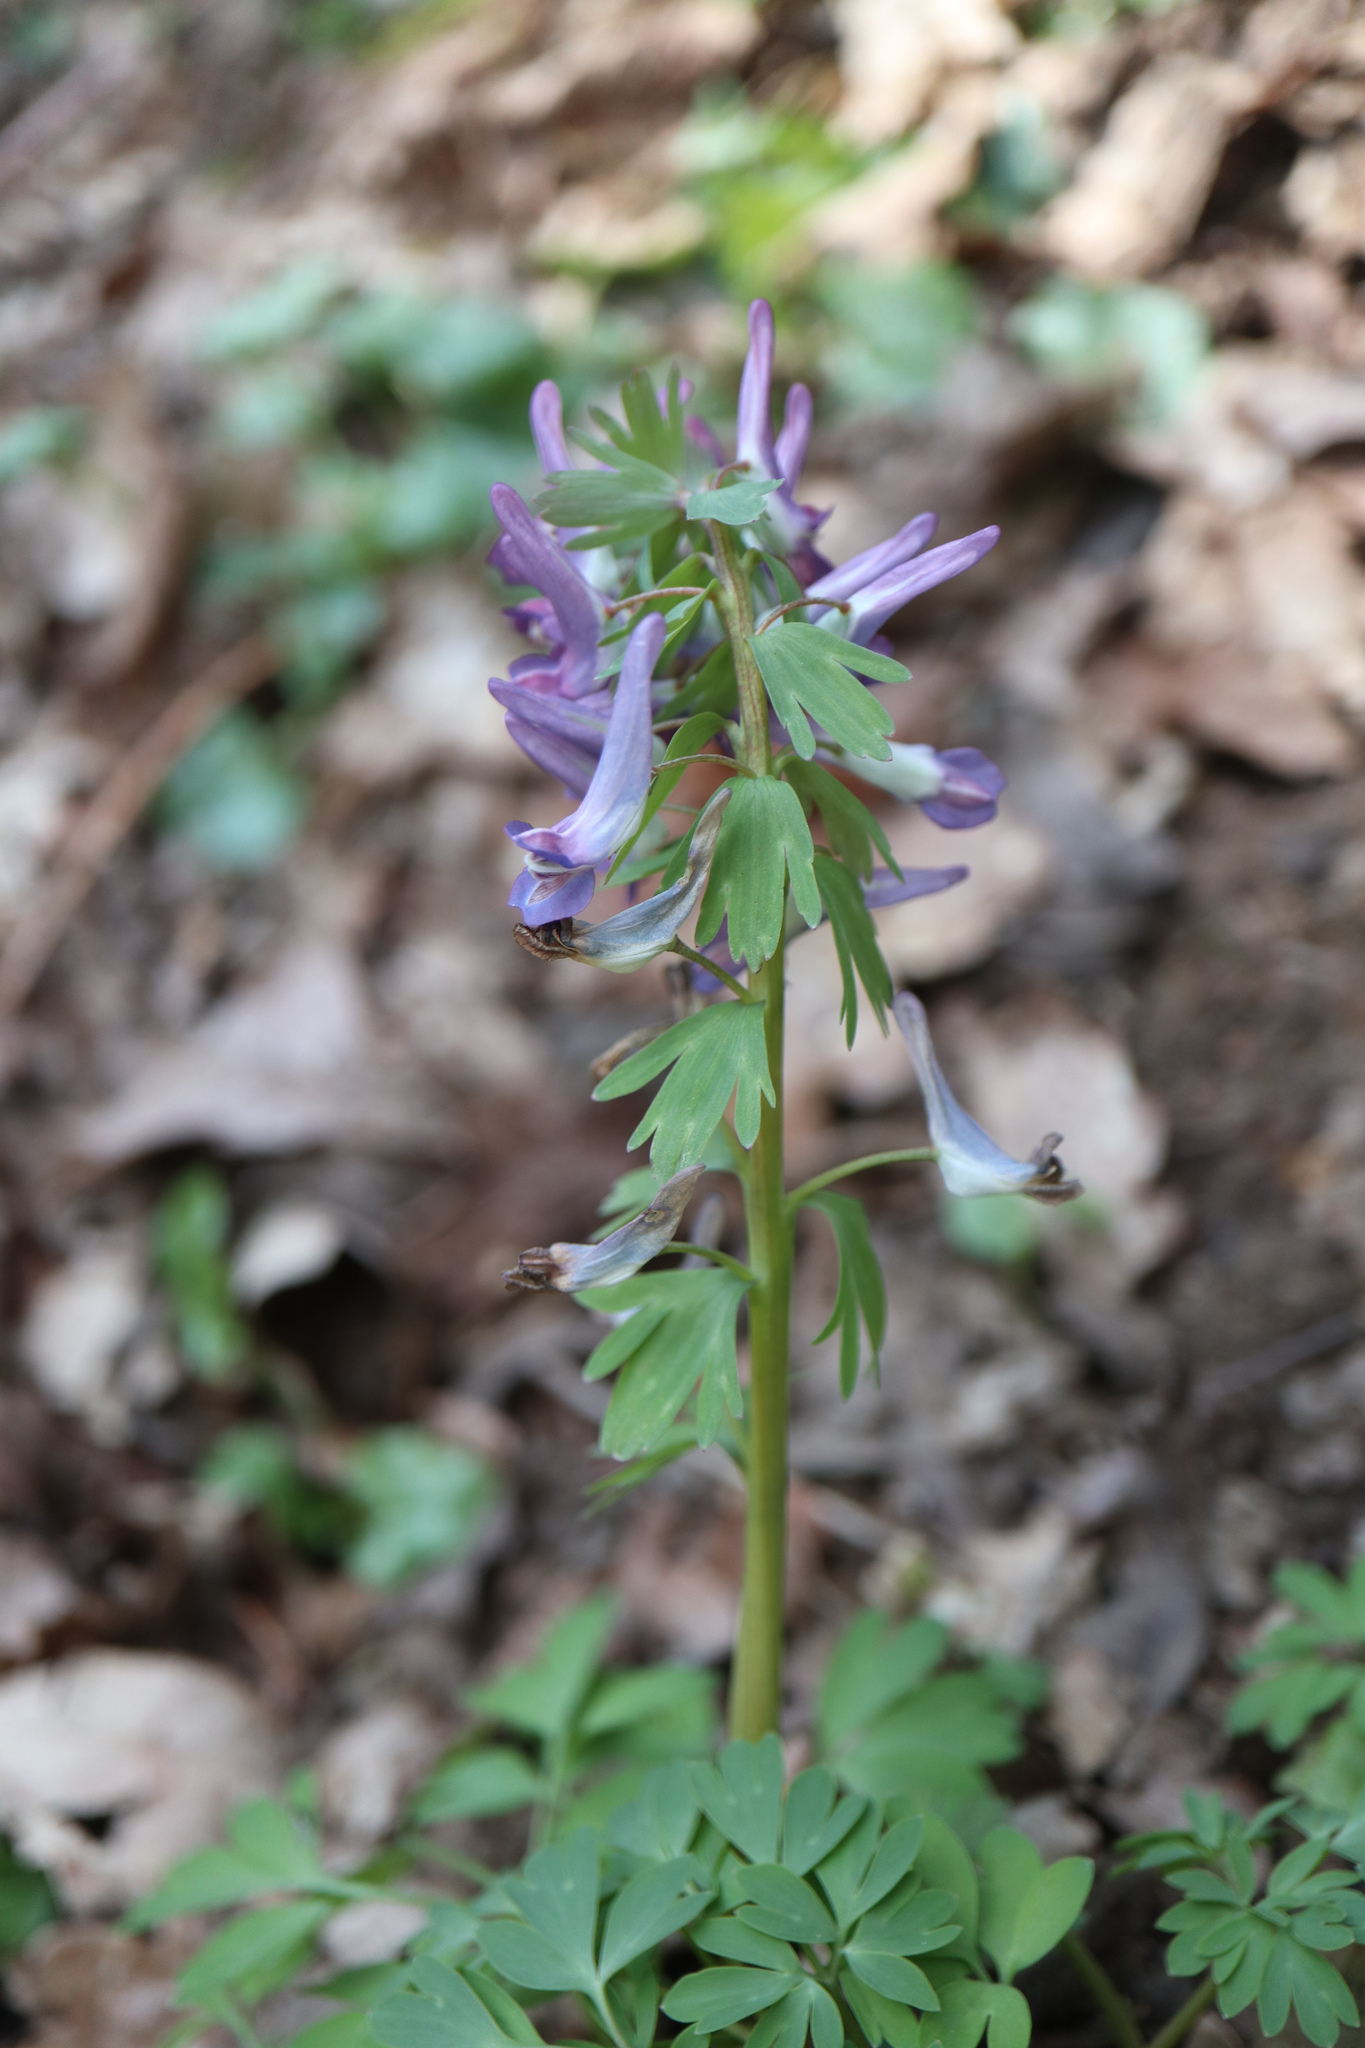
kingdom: Plantae
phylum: Tracheophyta
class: Magnoliopsida
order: Ranunculales
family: Papaveraceae
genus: Corydalis
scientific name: Corydalis solida
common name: Bird-in-a-bush
